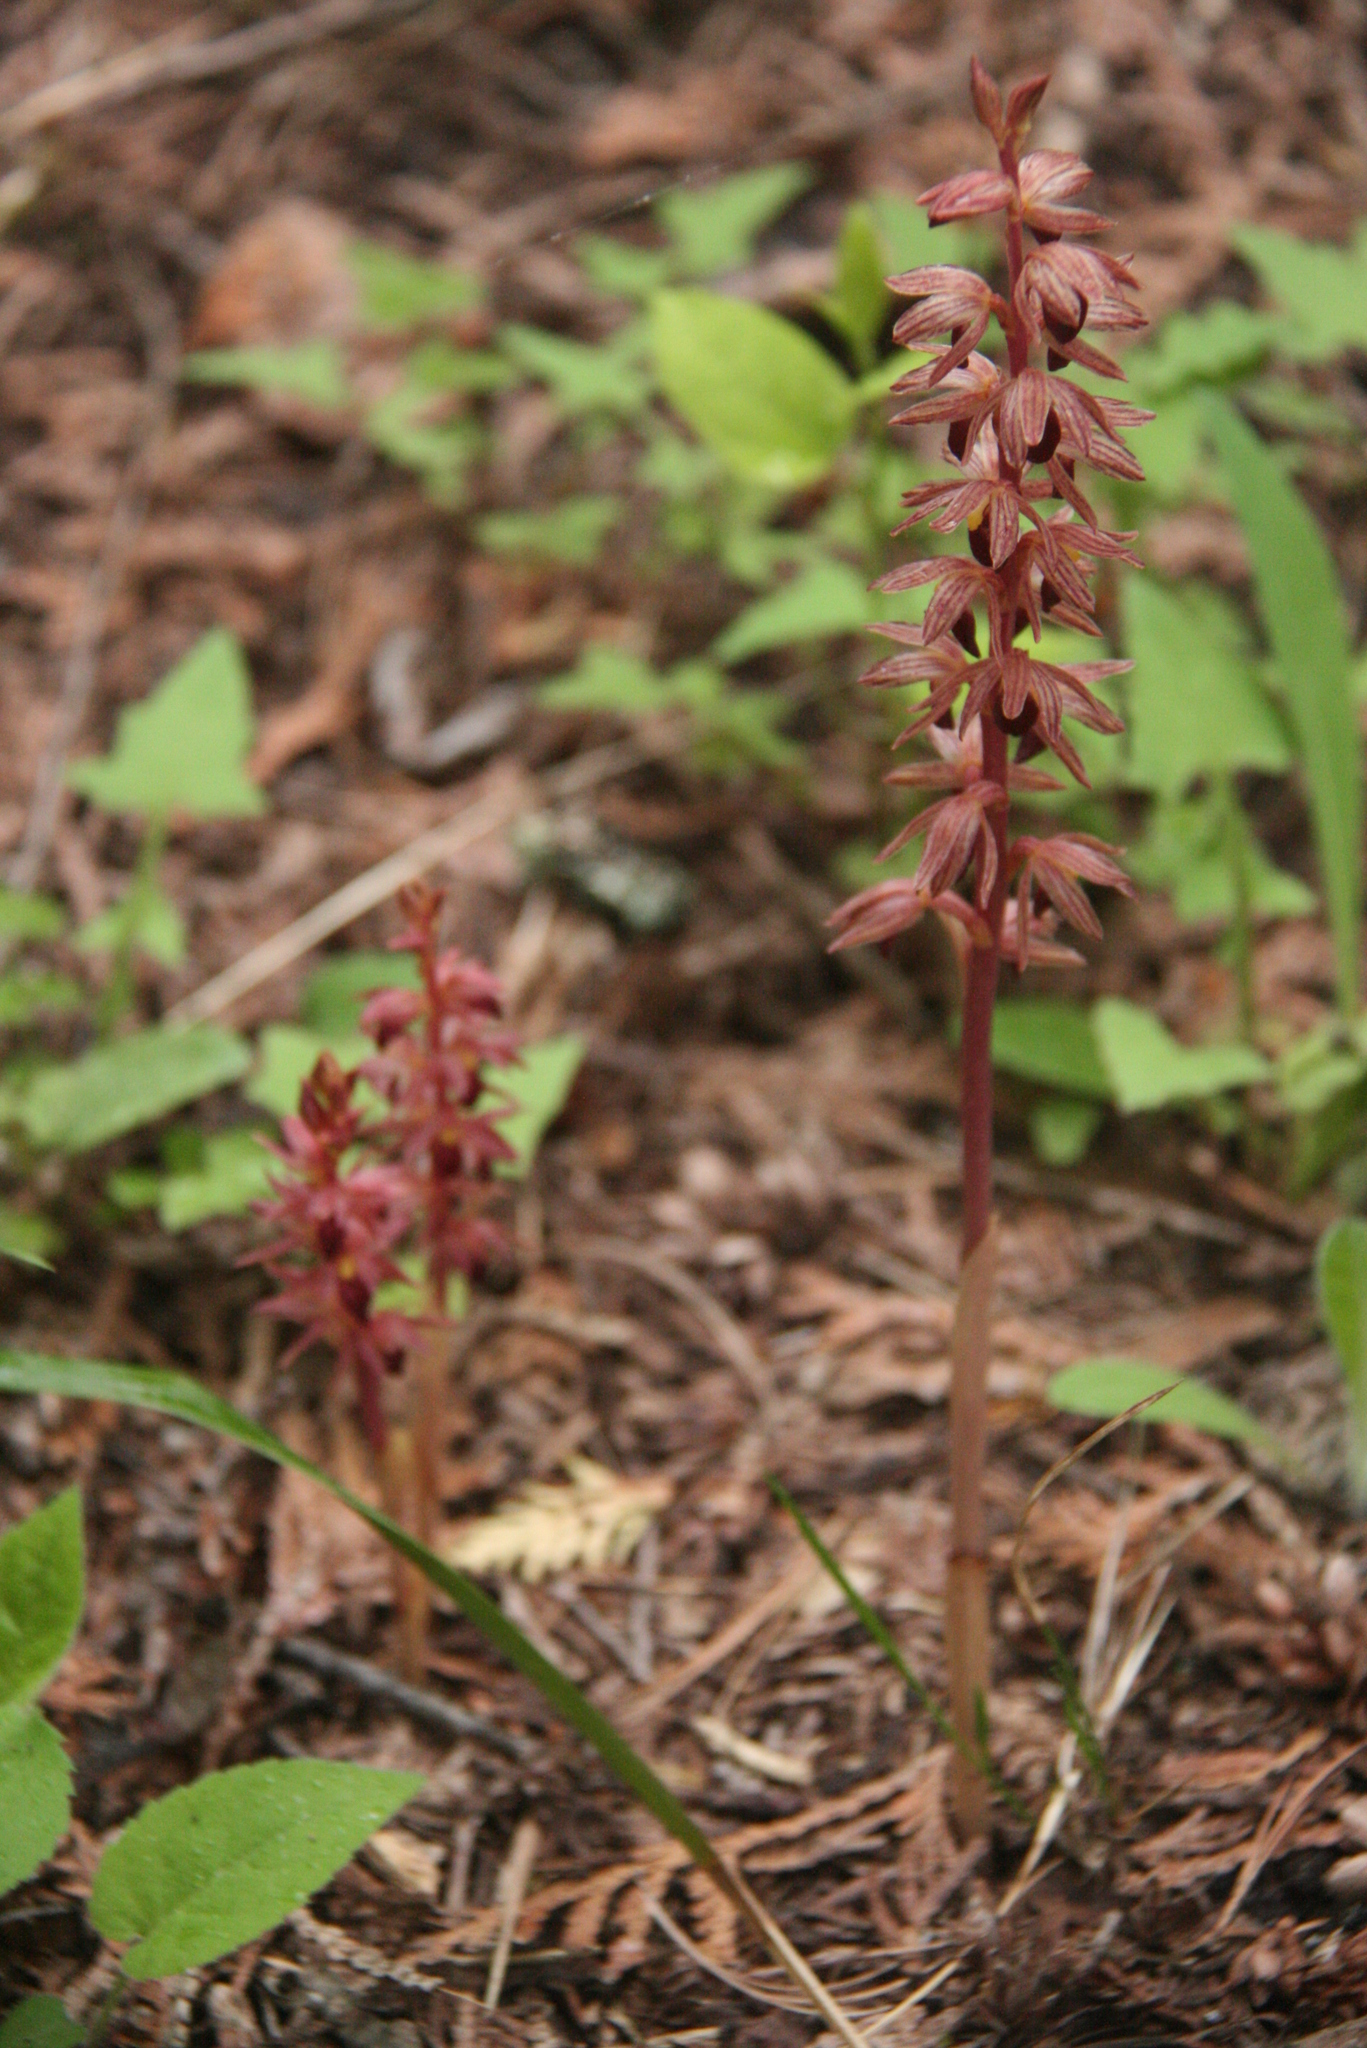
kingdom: Plantae
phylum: Tracheophyta
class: Liliopsida
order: Asparagales
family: Orchidaceae
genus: Corallorhiza
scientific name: Corallorhiza striata
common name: Hooded coralroot
